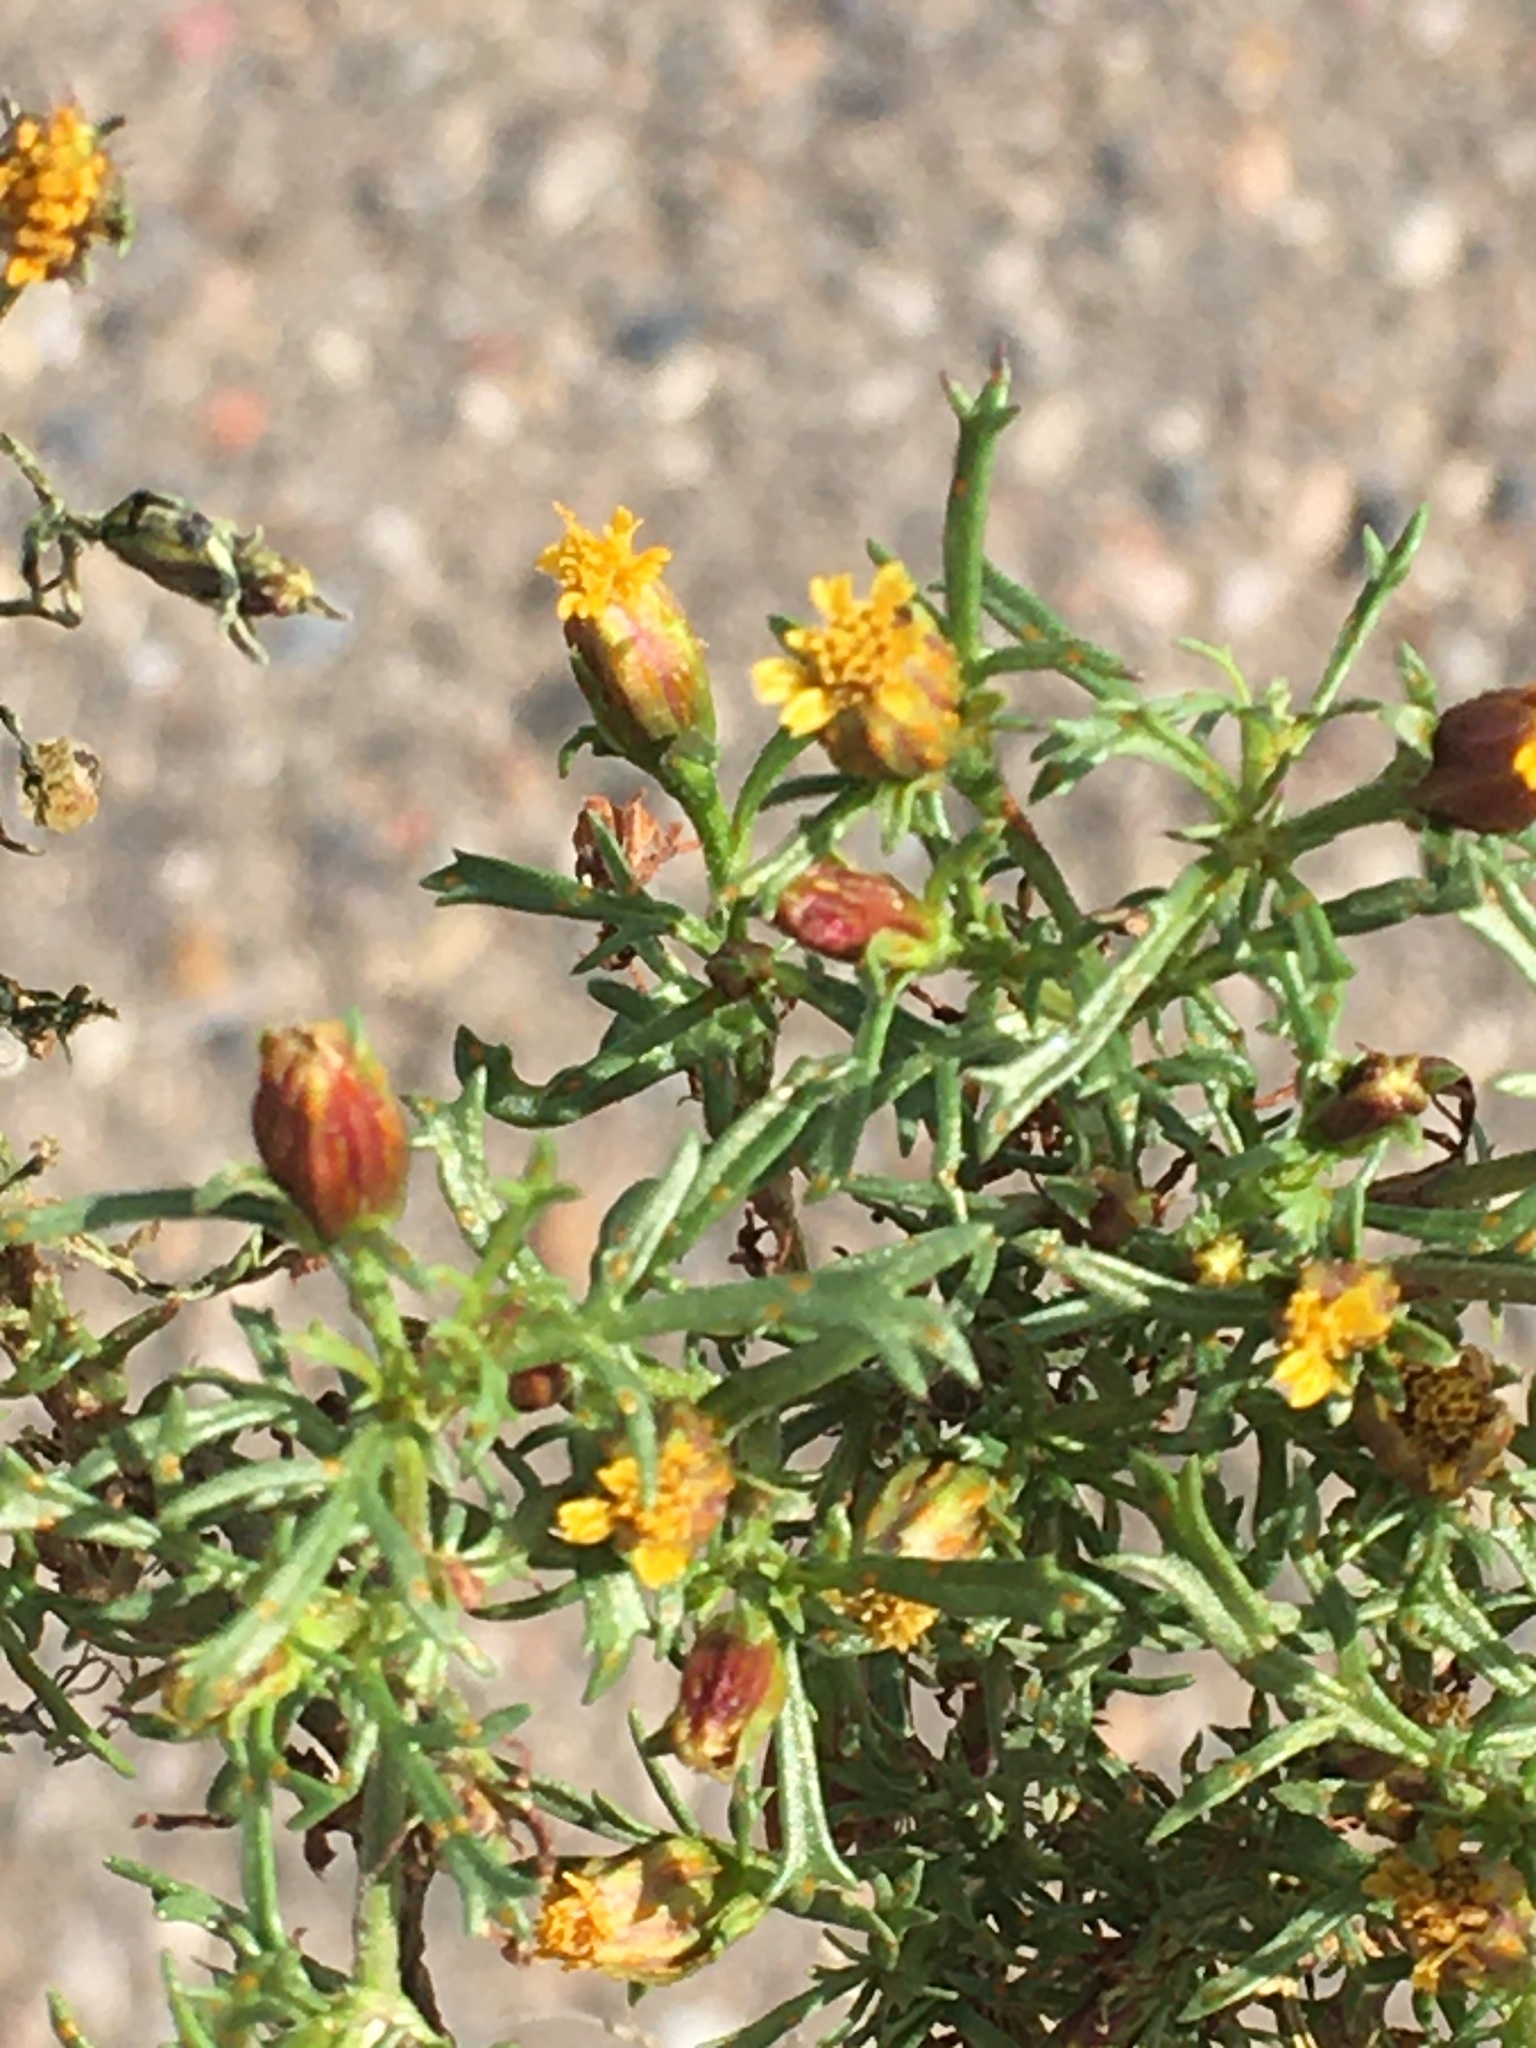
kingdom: Plantae
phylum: Tracheophyta
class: Magnoliopsida
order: Asterales
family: Asteraceae
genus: Dyssodia
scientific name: Dyssodia papposa
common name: Dogweed
